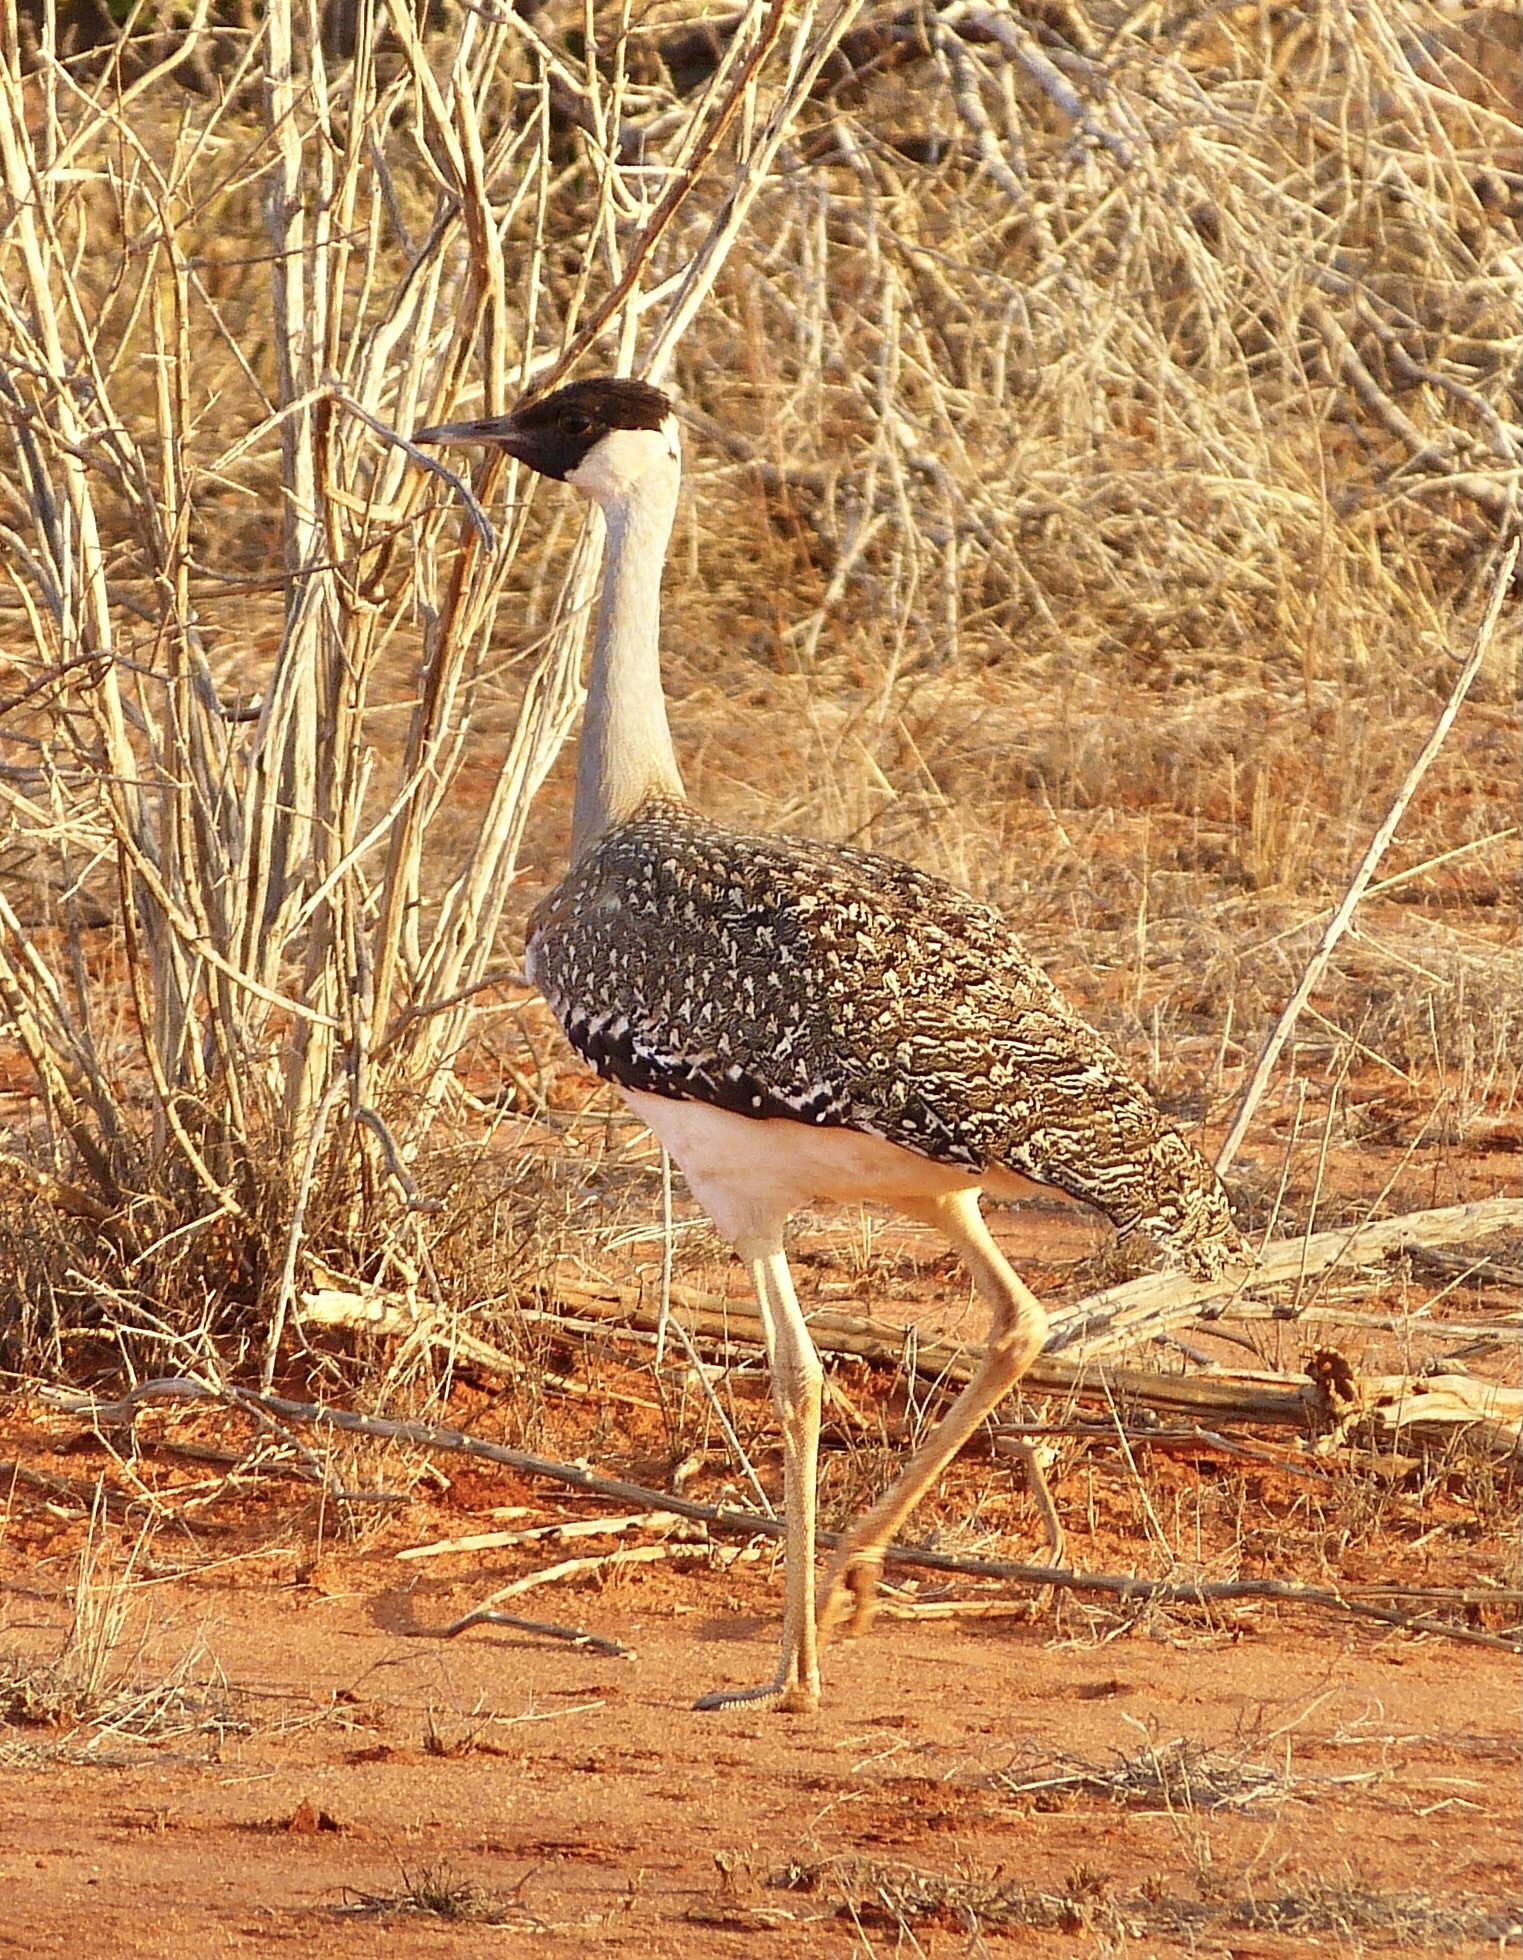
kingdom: Animalia
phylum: Chordata
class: Aves
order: Otidiformes
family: Otididae
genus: Neotis
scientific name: Neotis heuglinii
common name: Heuglin's bustard
